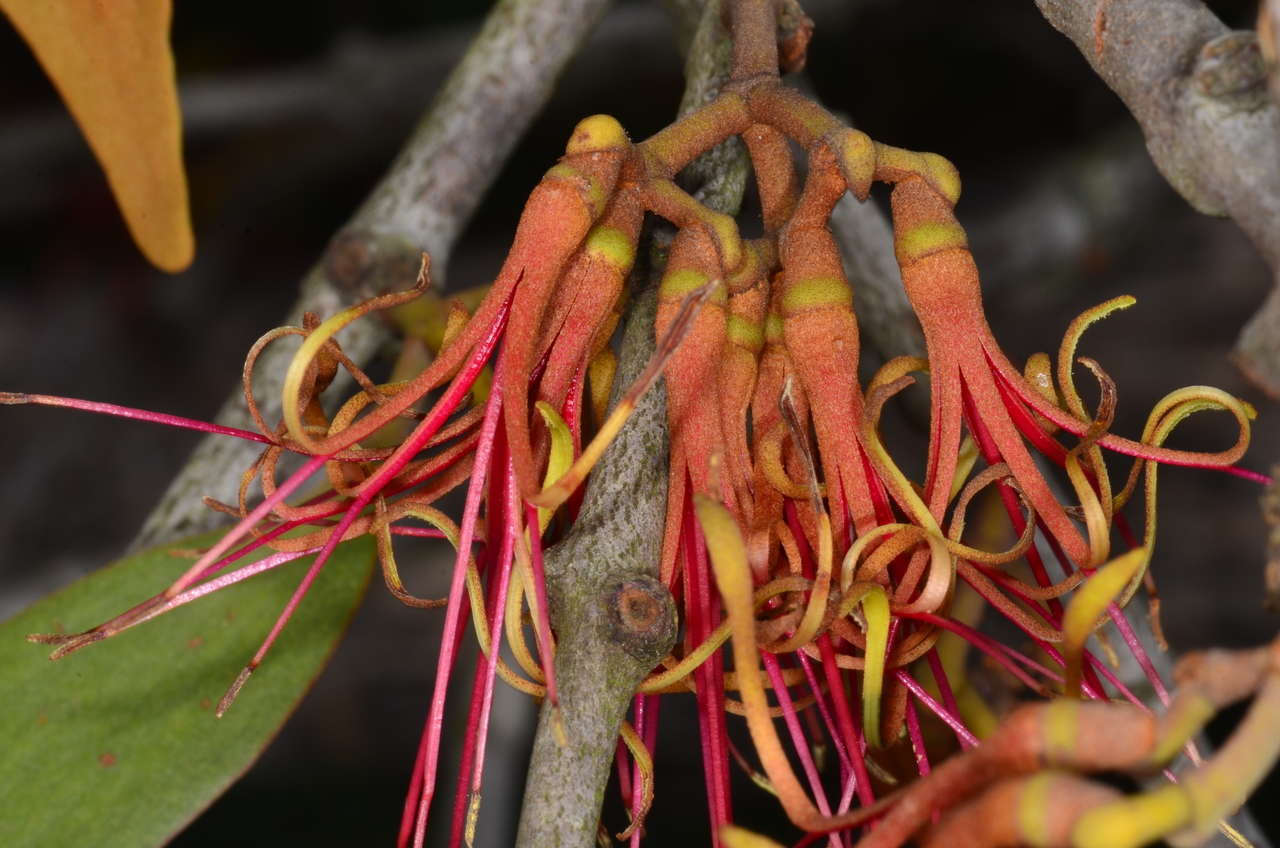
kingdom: Plantae
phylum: Tracheophyta
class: Magnoliopsida
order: Santalales
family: Loranthaceae
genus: Amyema
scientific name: Amyema pendula
